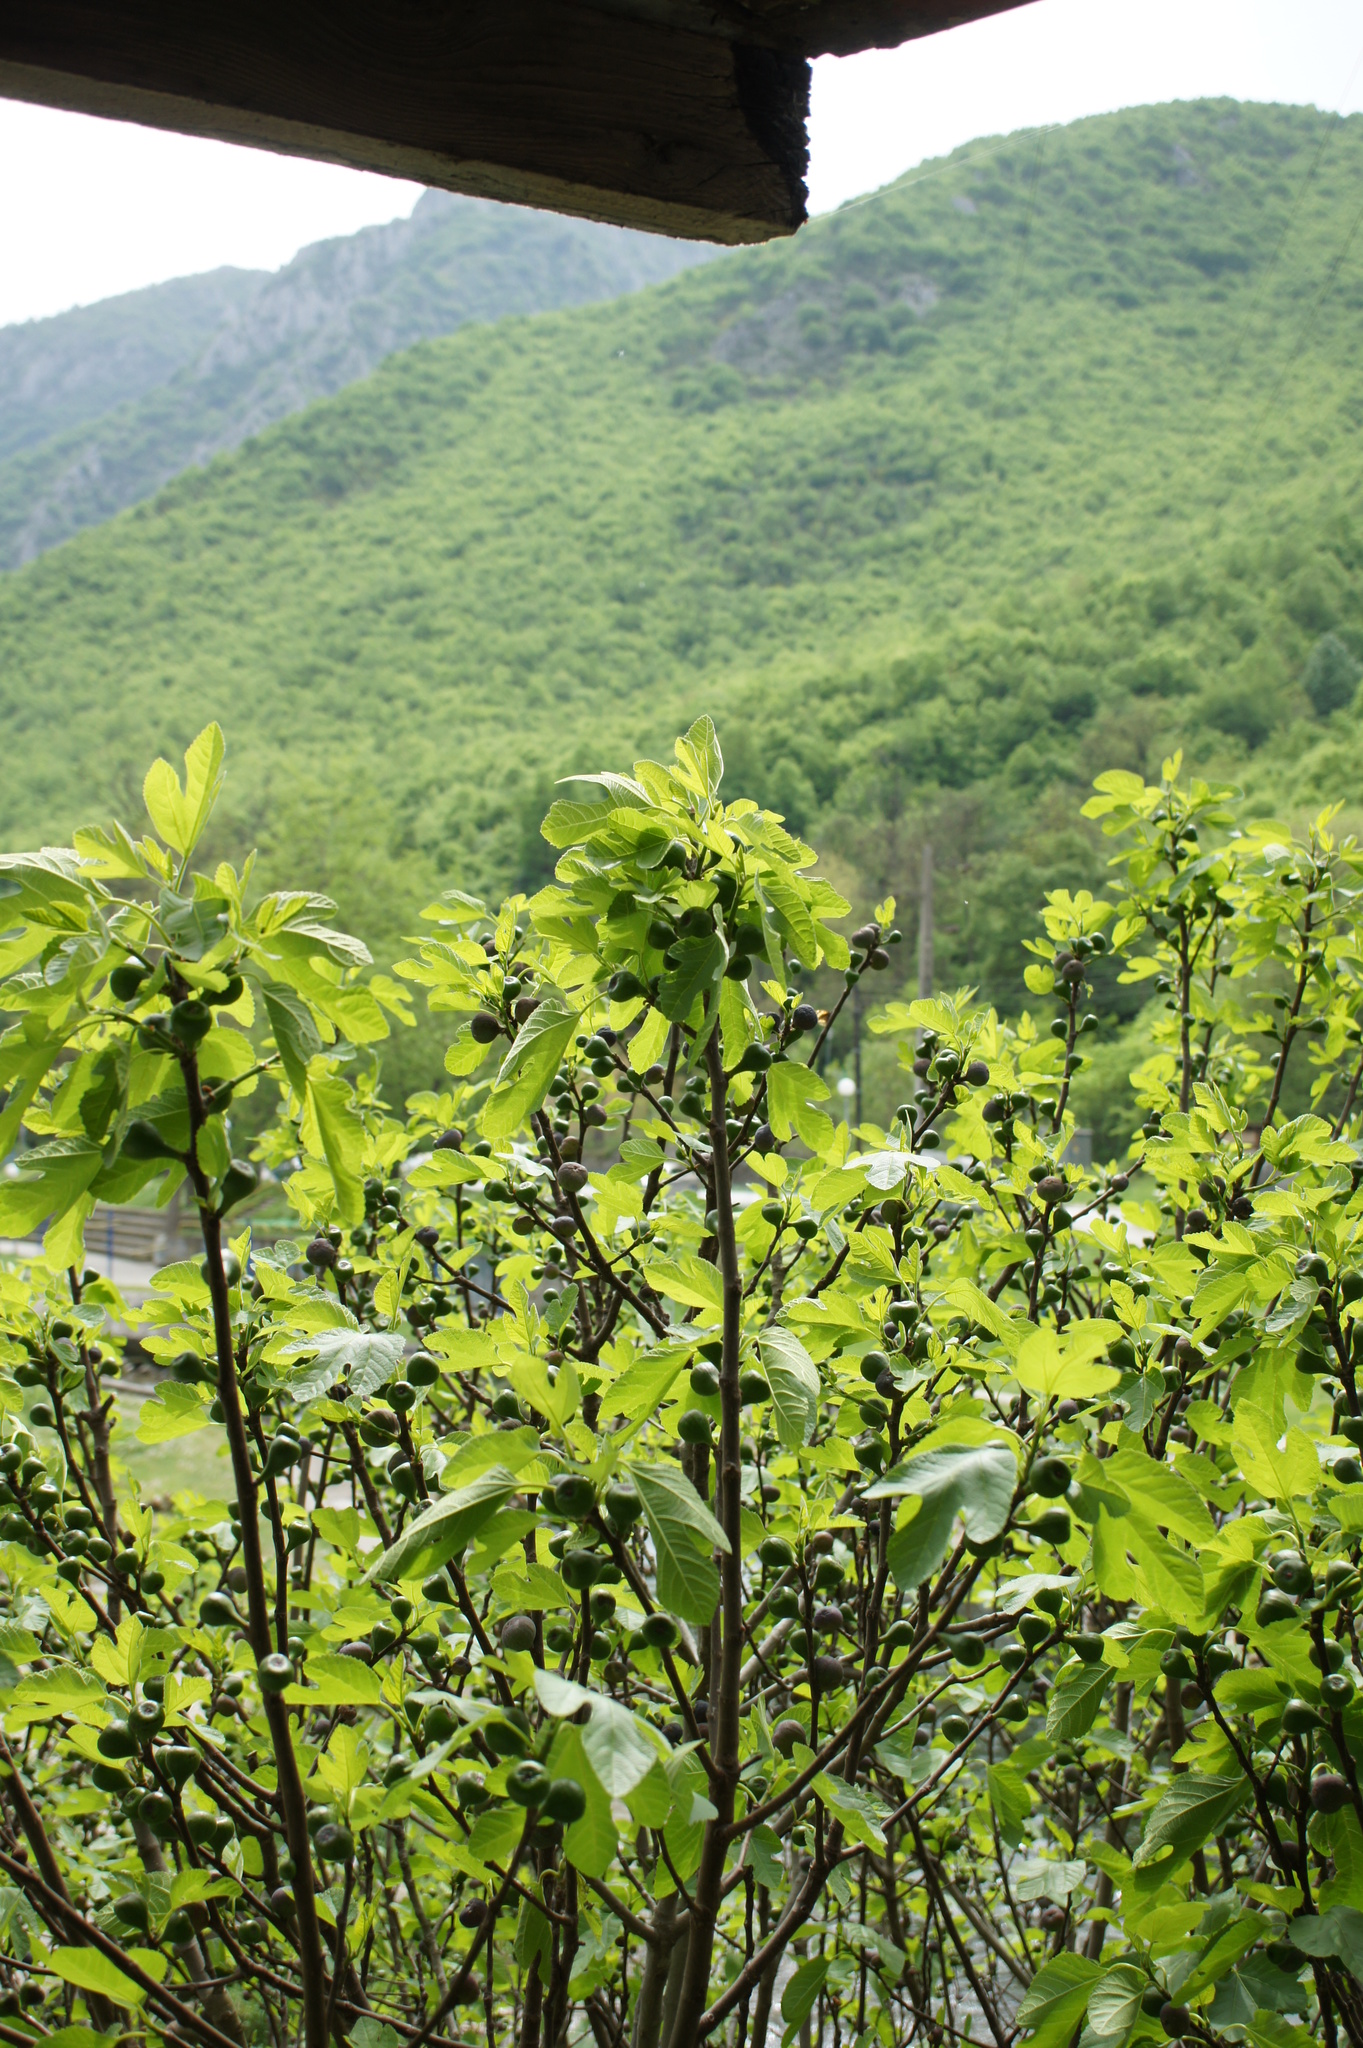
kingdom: Plantae
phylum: Tracheophyta
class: Magnoliopsida
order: Rosales
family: Moraceae
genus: Ficus
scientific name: Ficus carica
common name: Fig
